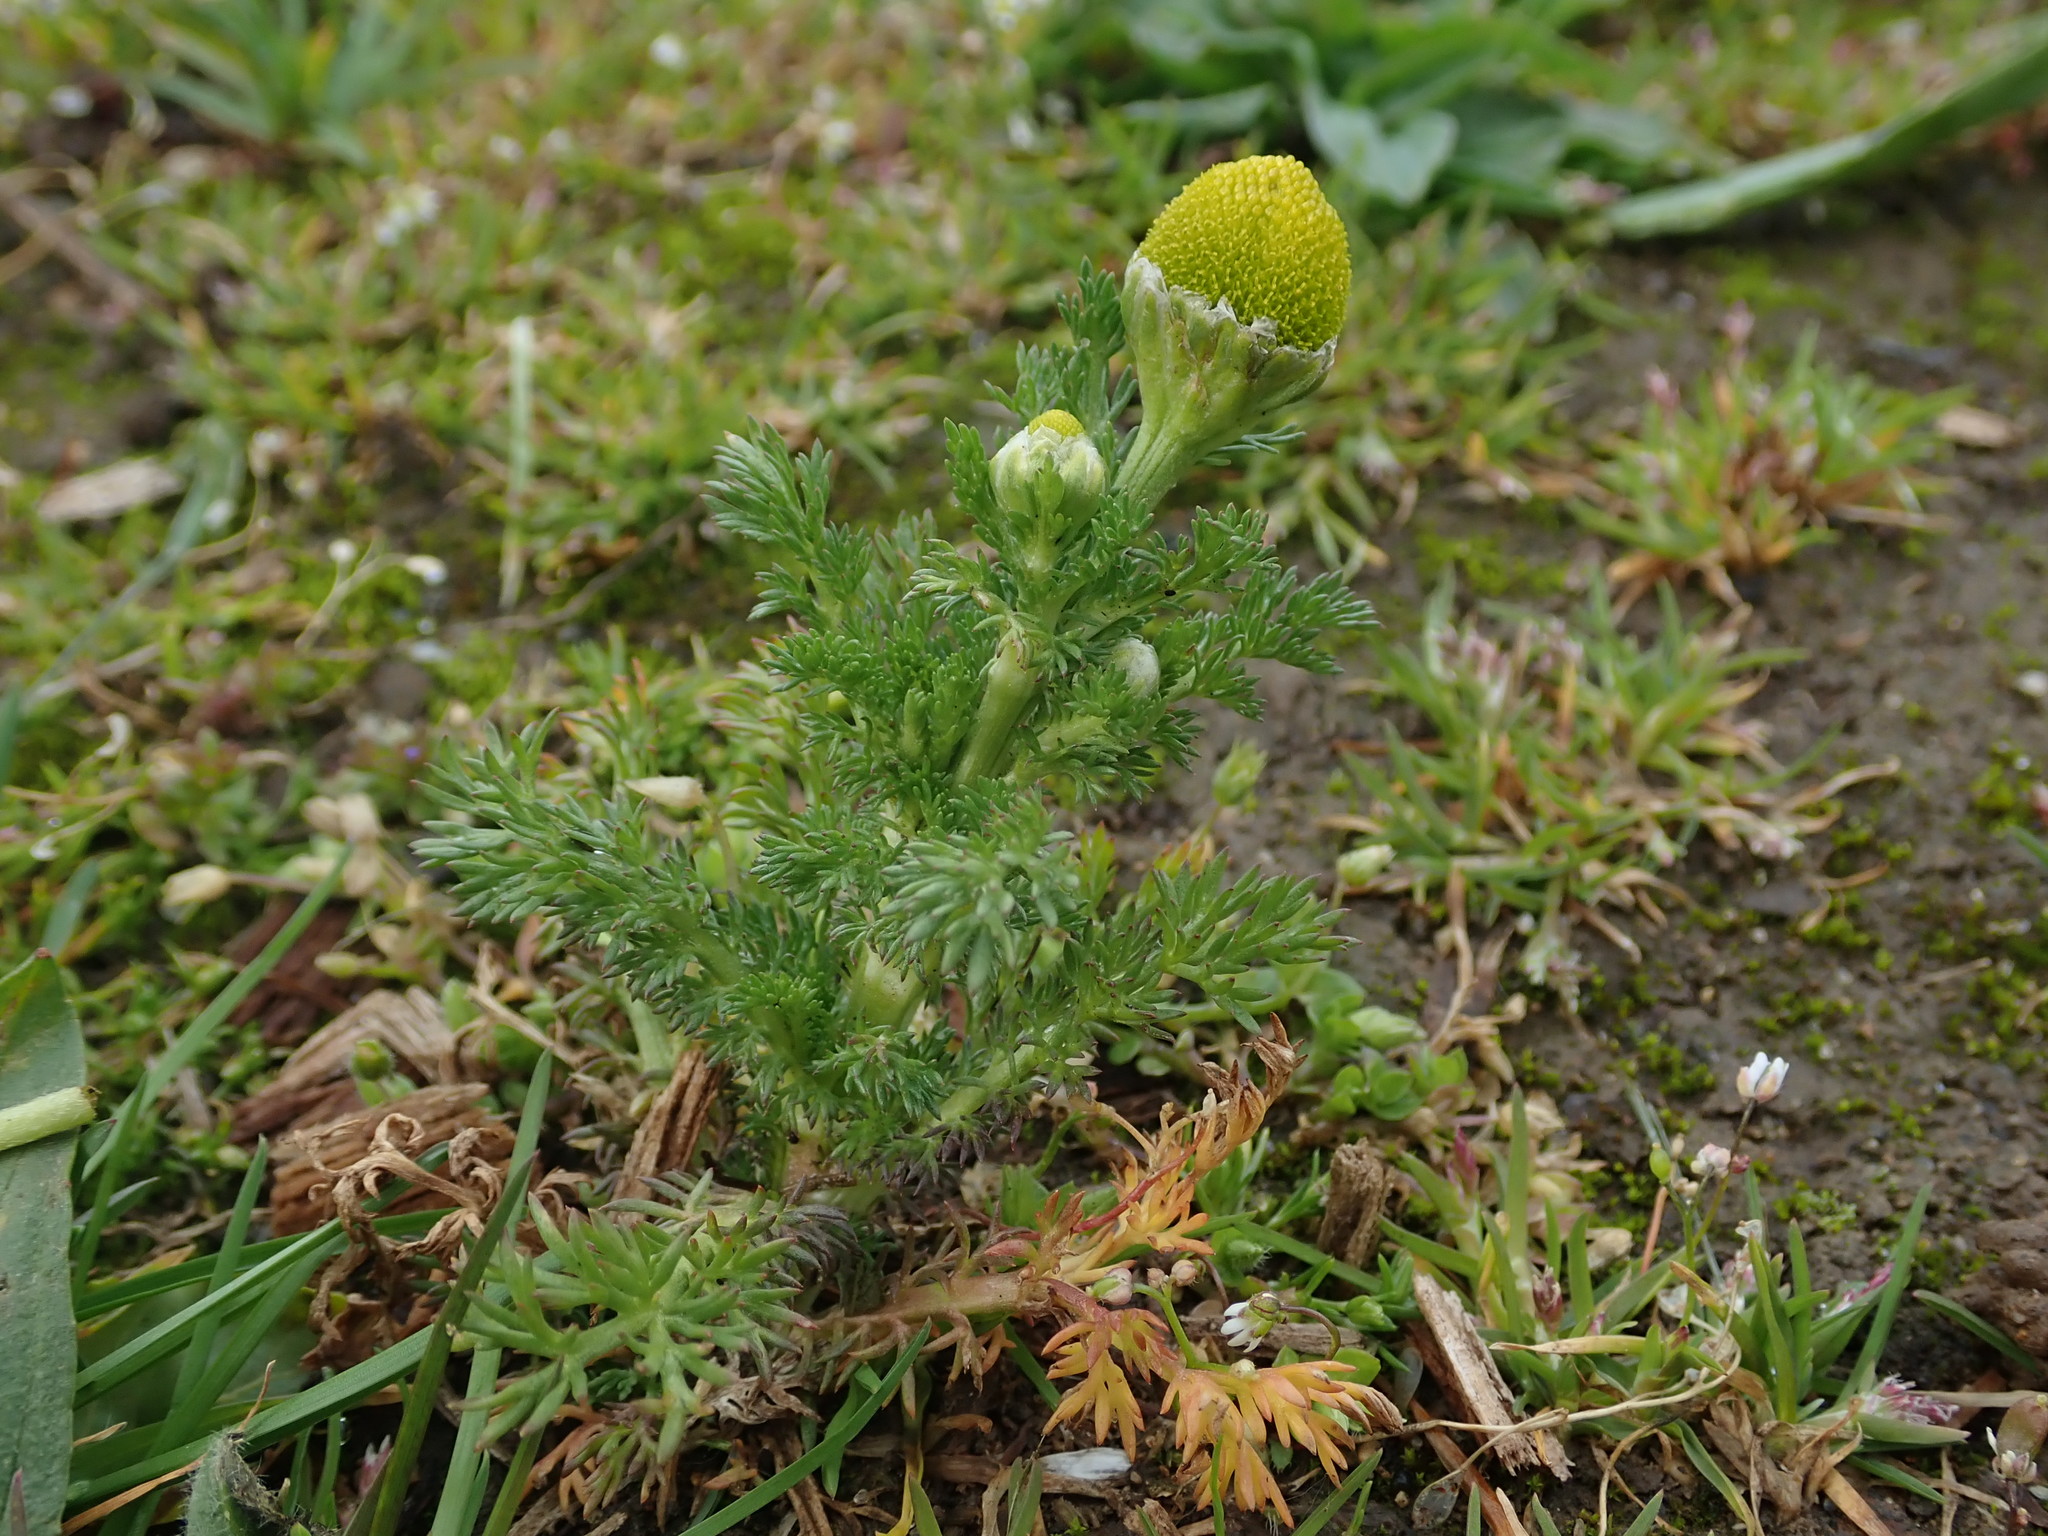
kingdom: Plantae
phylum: Tracheophyta
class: Magnoliopsida
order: Asterales
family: Asteraceae
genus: Matricaria
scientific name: Matricaria discoidea
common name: Disc mayweed
